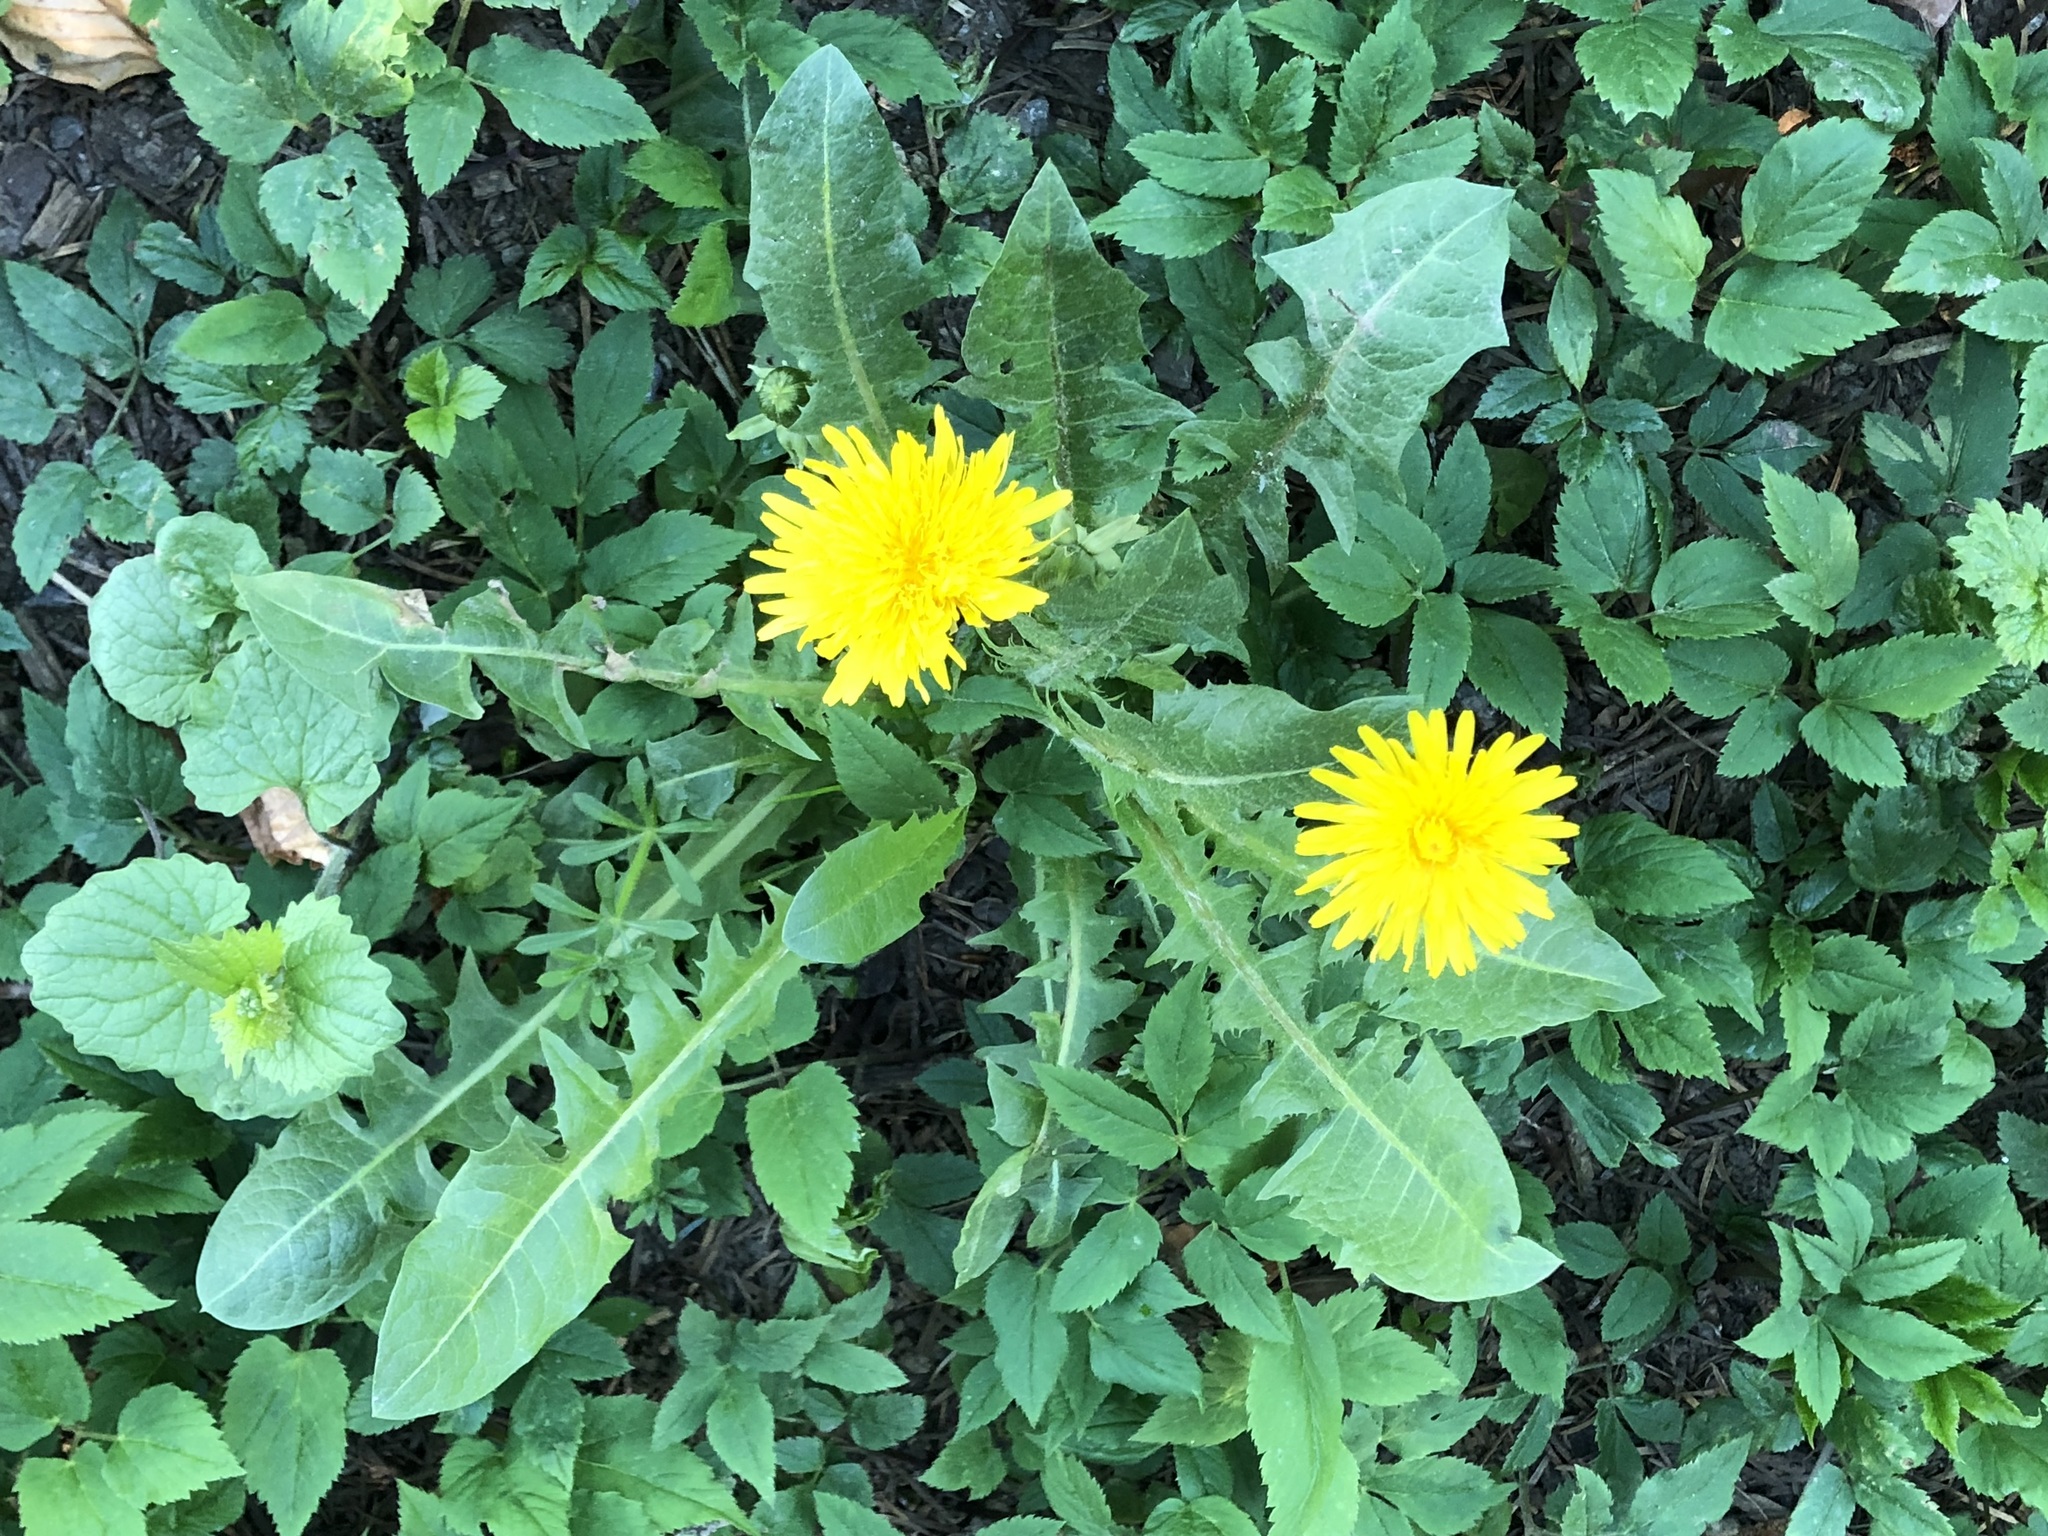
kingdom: Plantae
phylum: Tracheophyta
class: Magnoliopsida
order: Asterales
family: Asteraceae
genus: Taraxacum
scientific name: Taraxacum officinale
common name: Common dandelion
